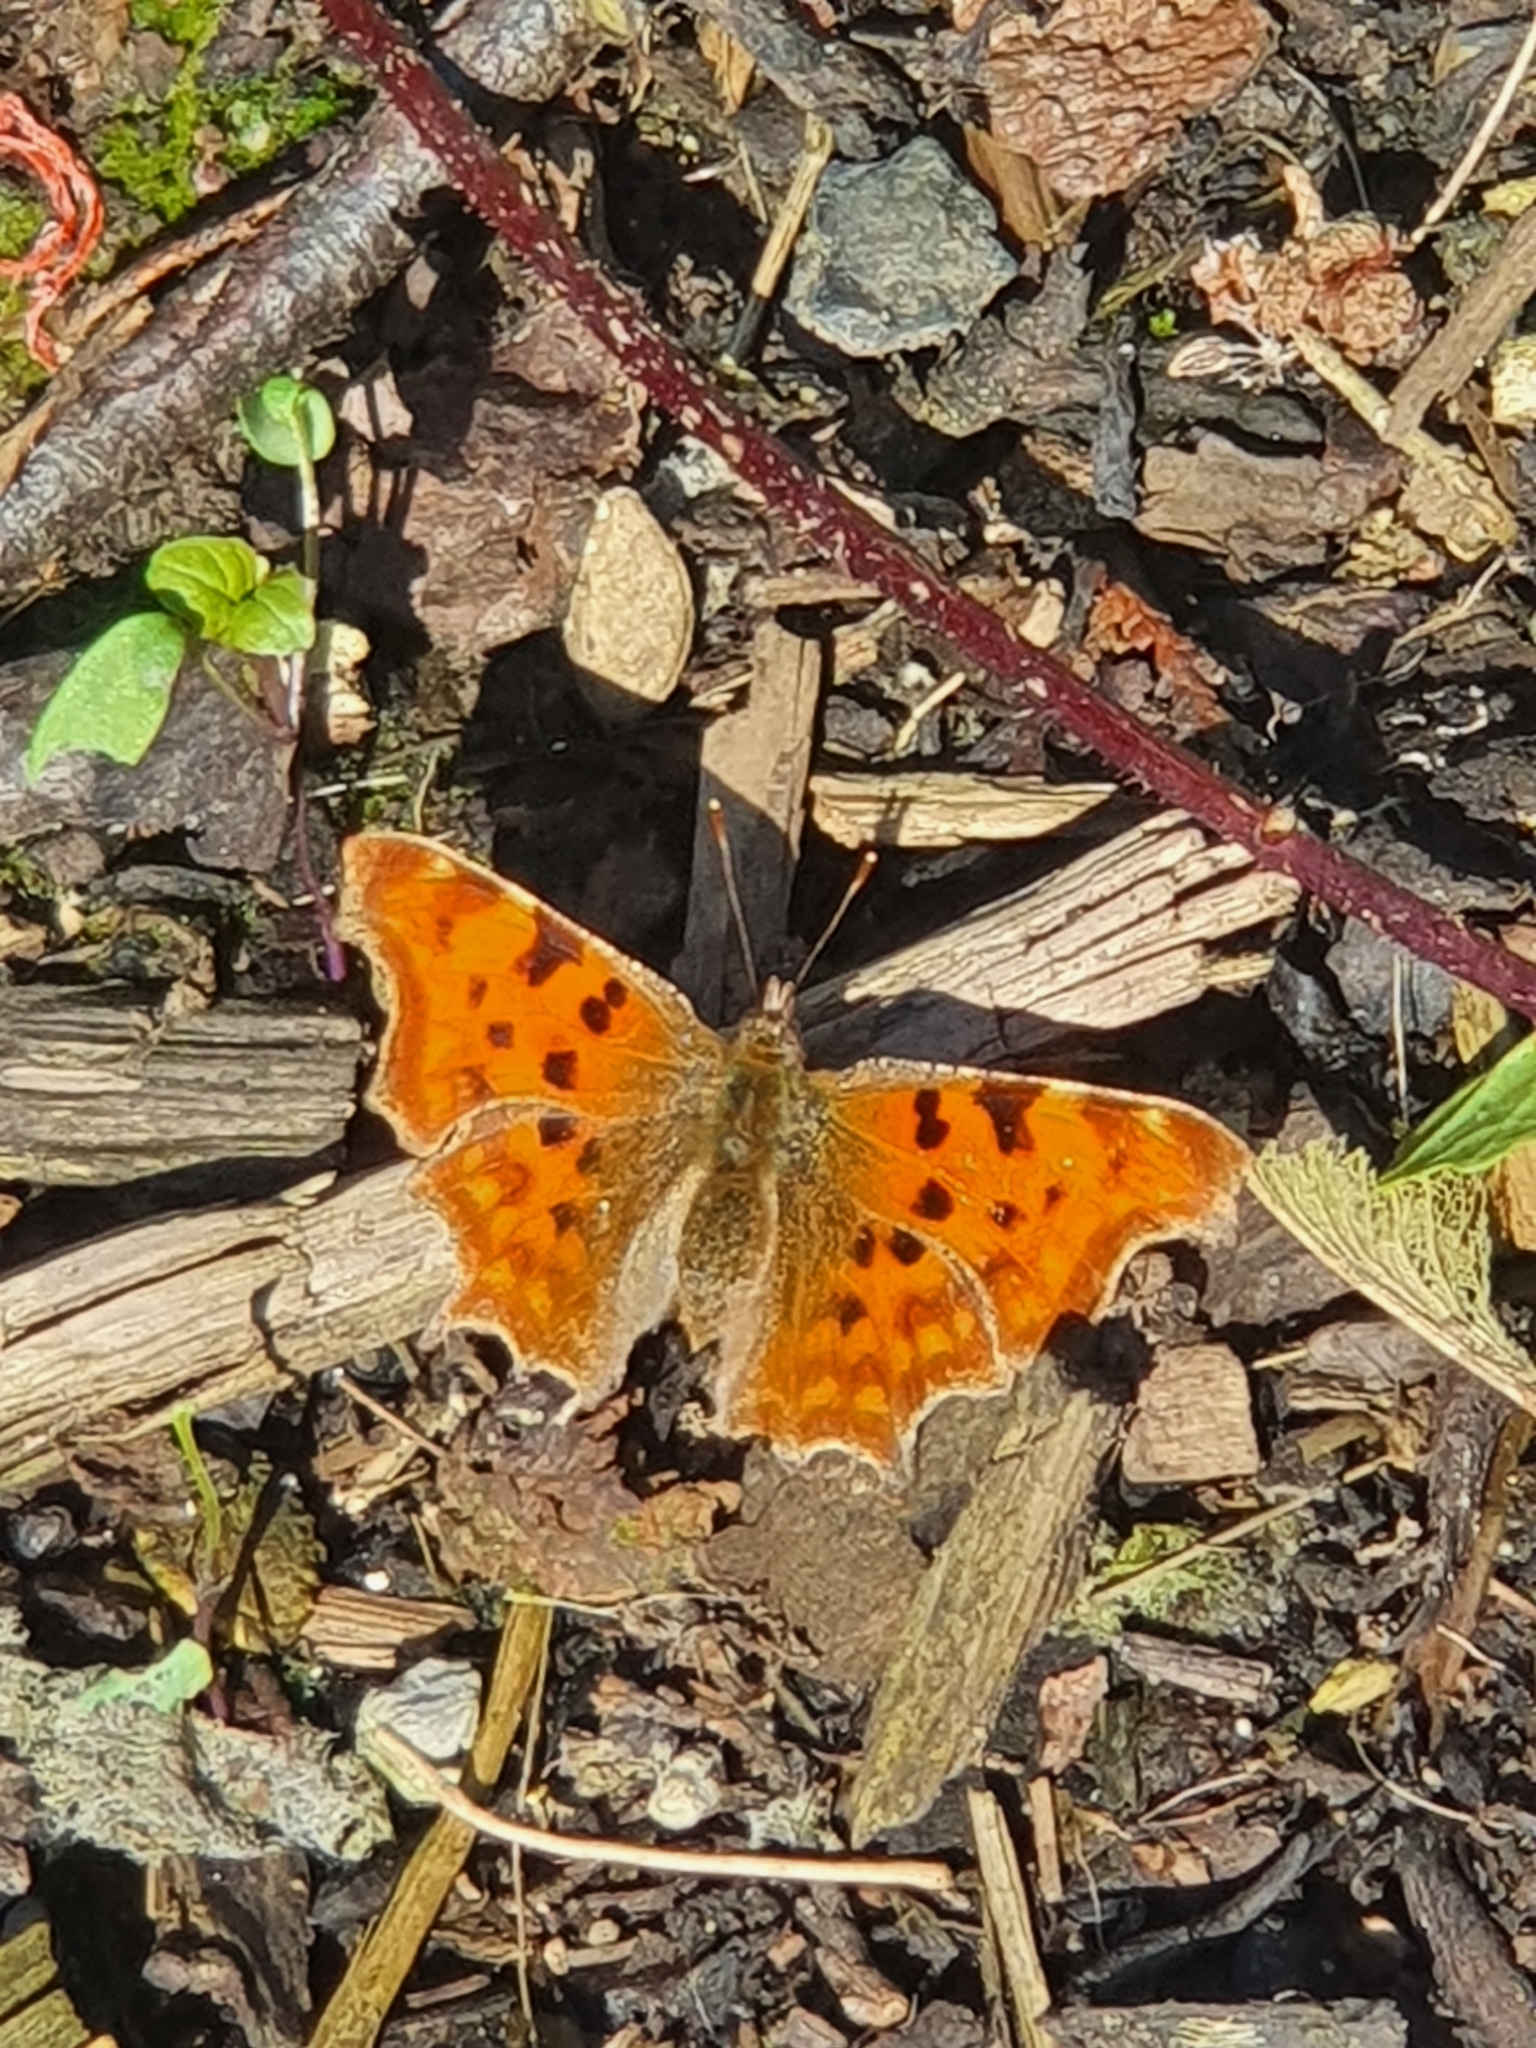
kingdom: Animalia
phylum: Arthropoda
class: Insecta
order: Lepidoptera
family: Nymphalidae
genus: Polygonia
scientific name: Polygonia c-album
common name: Comma
